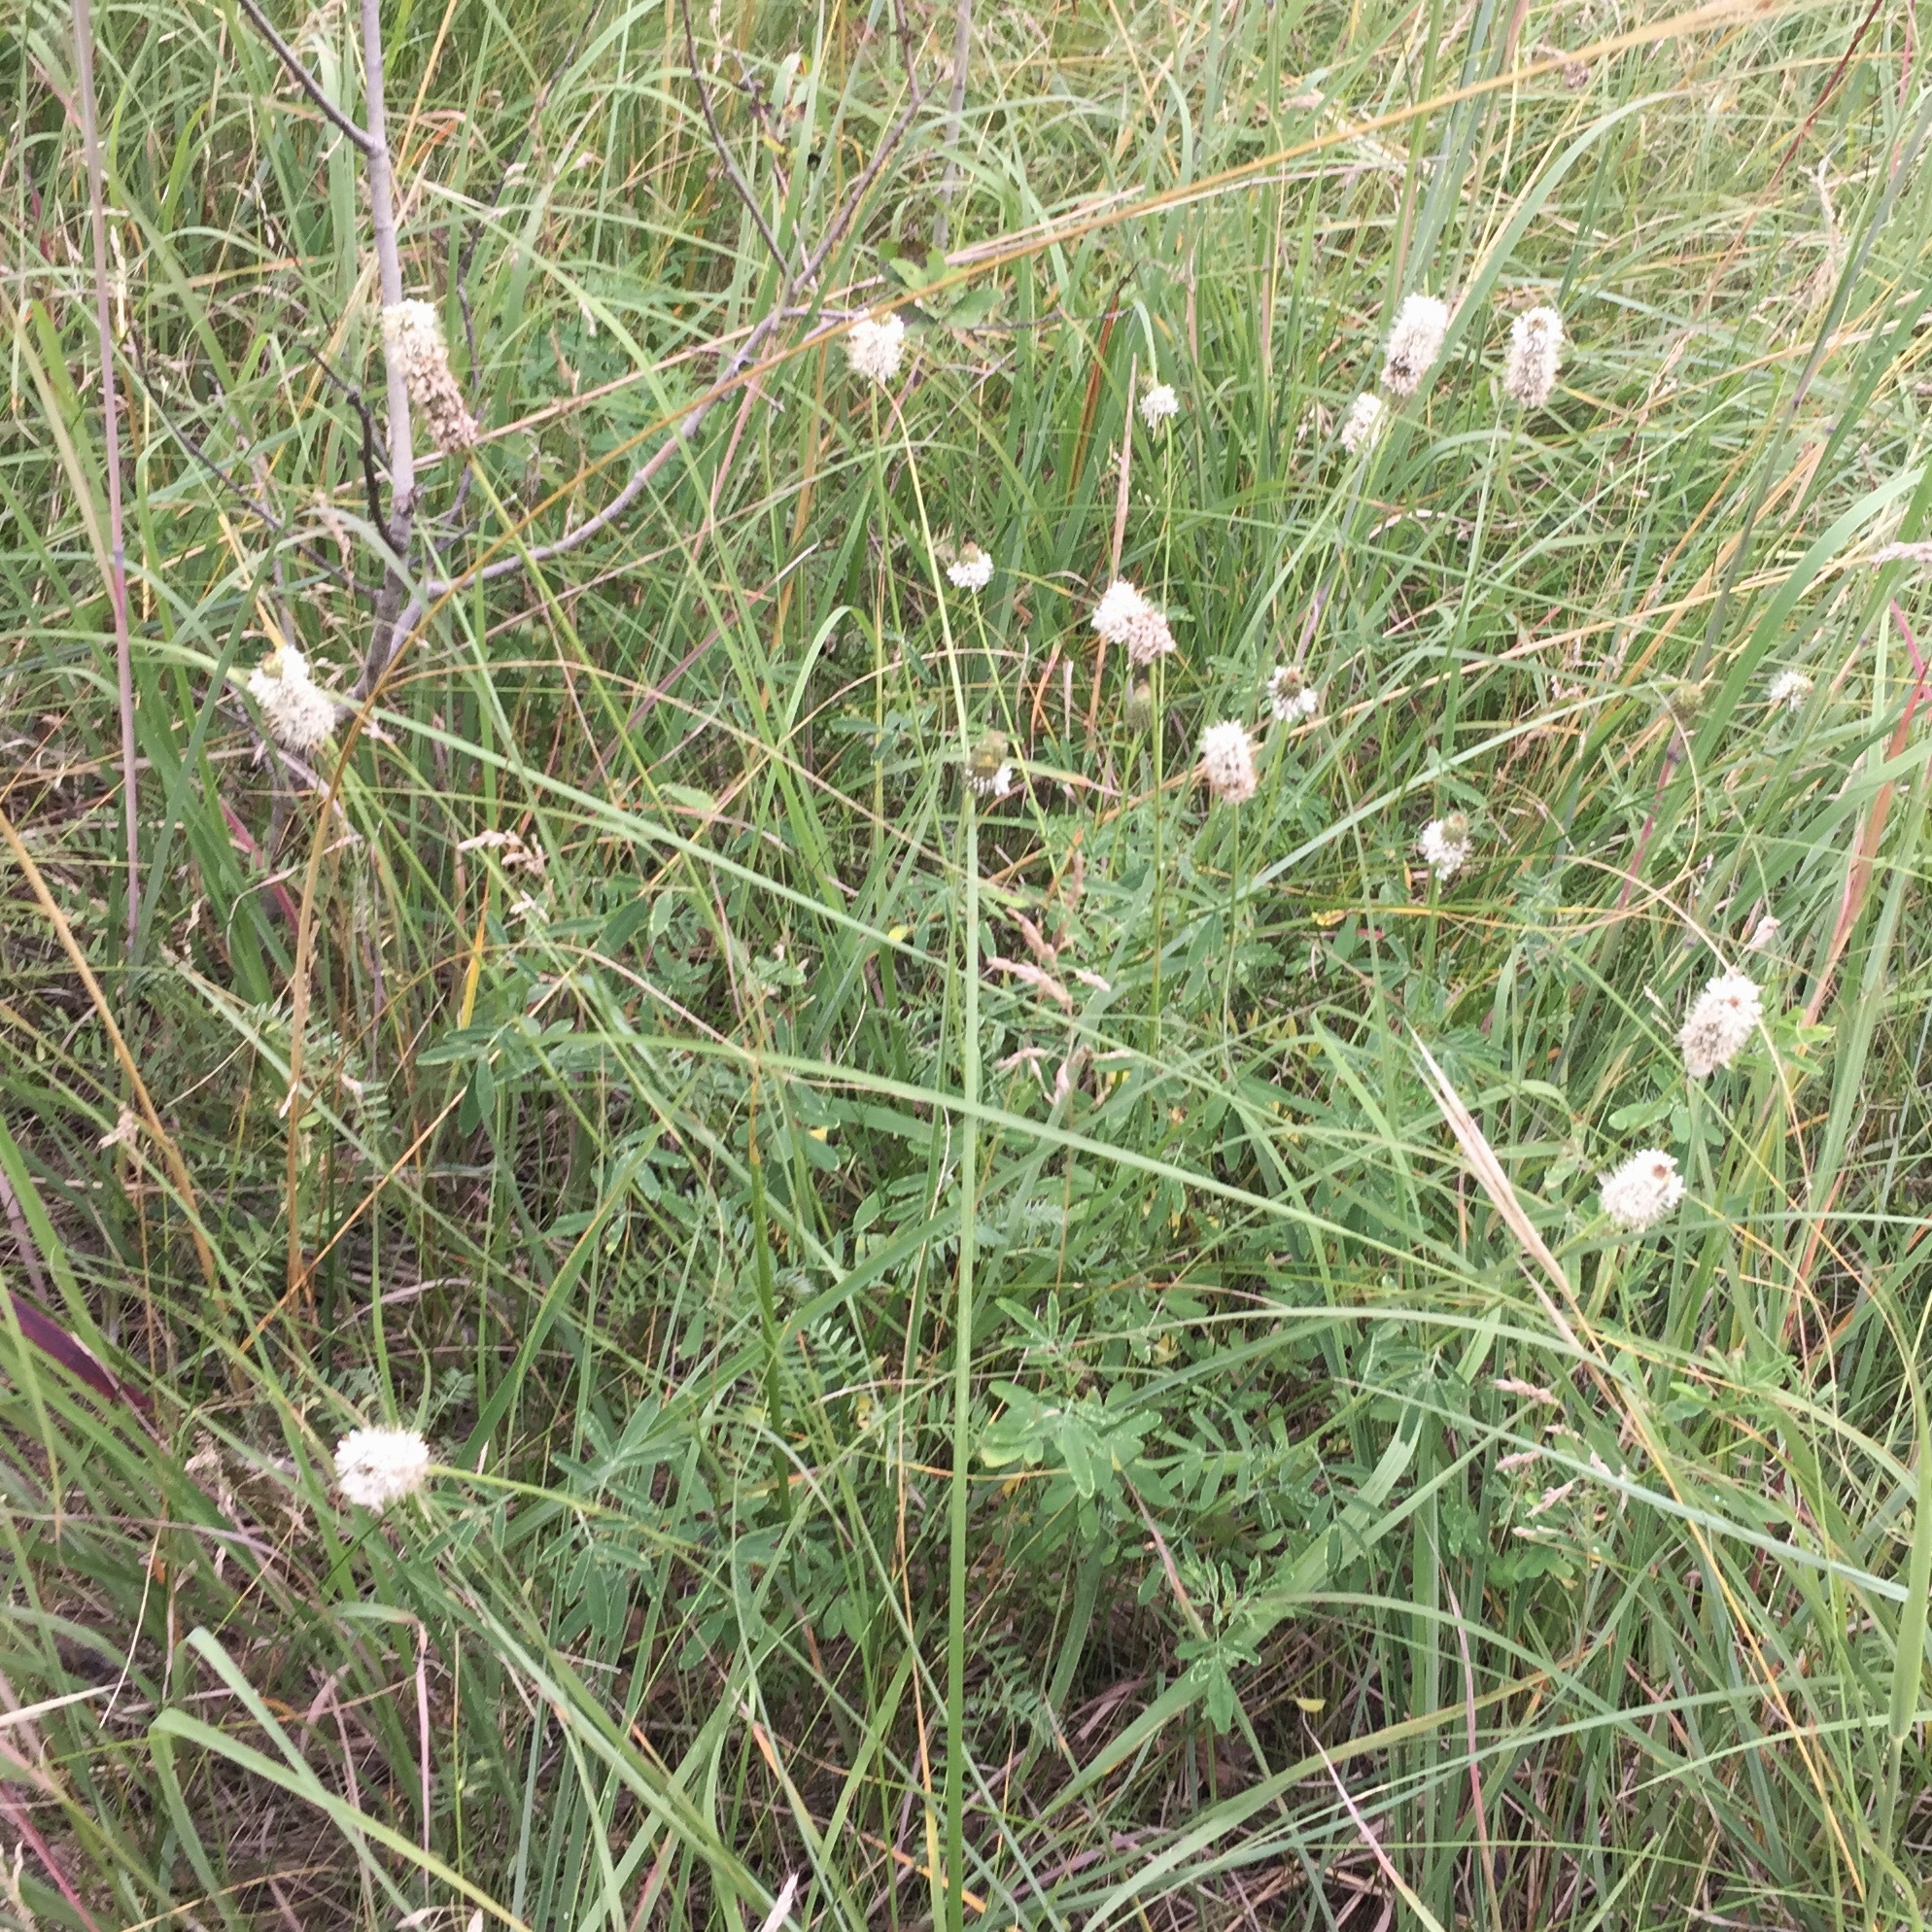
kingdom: Plantae
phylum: Tracheophyta
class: Magnoliopsida
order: Fabales
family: Fabaceae
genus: Dalea
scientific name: Dalea candida
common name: White prairie-clover
